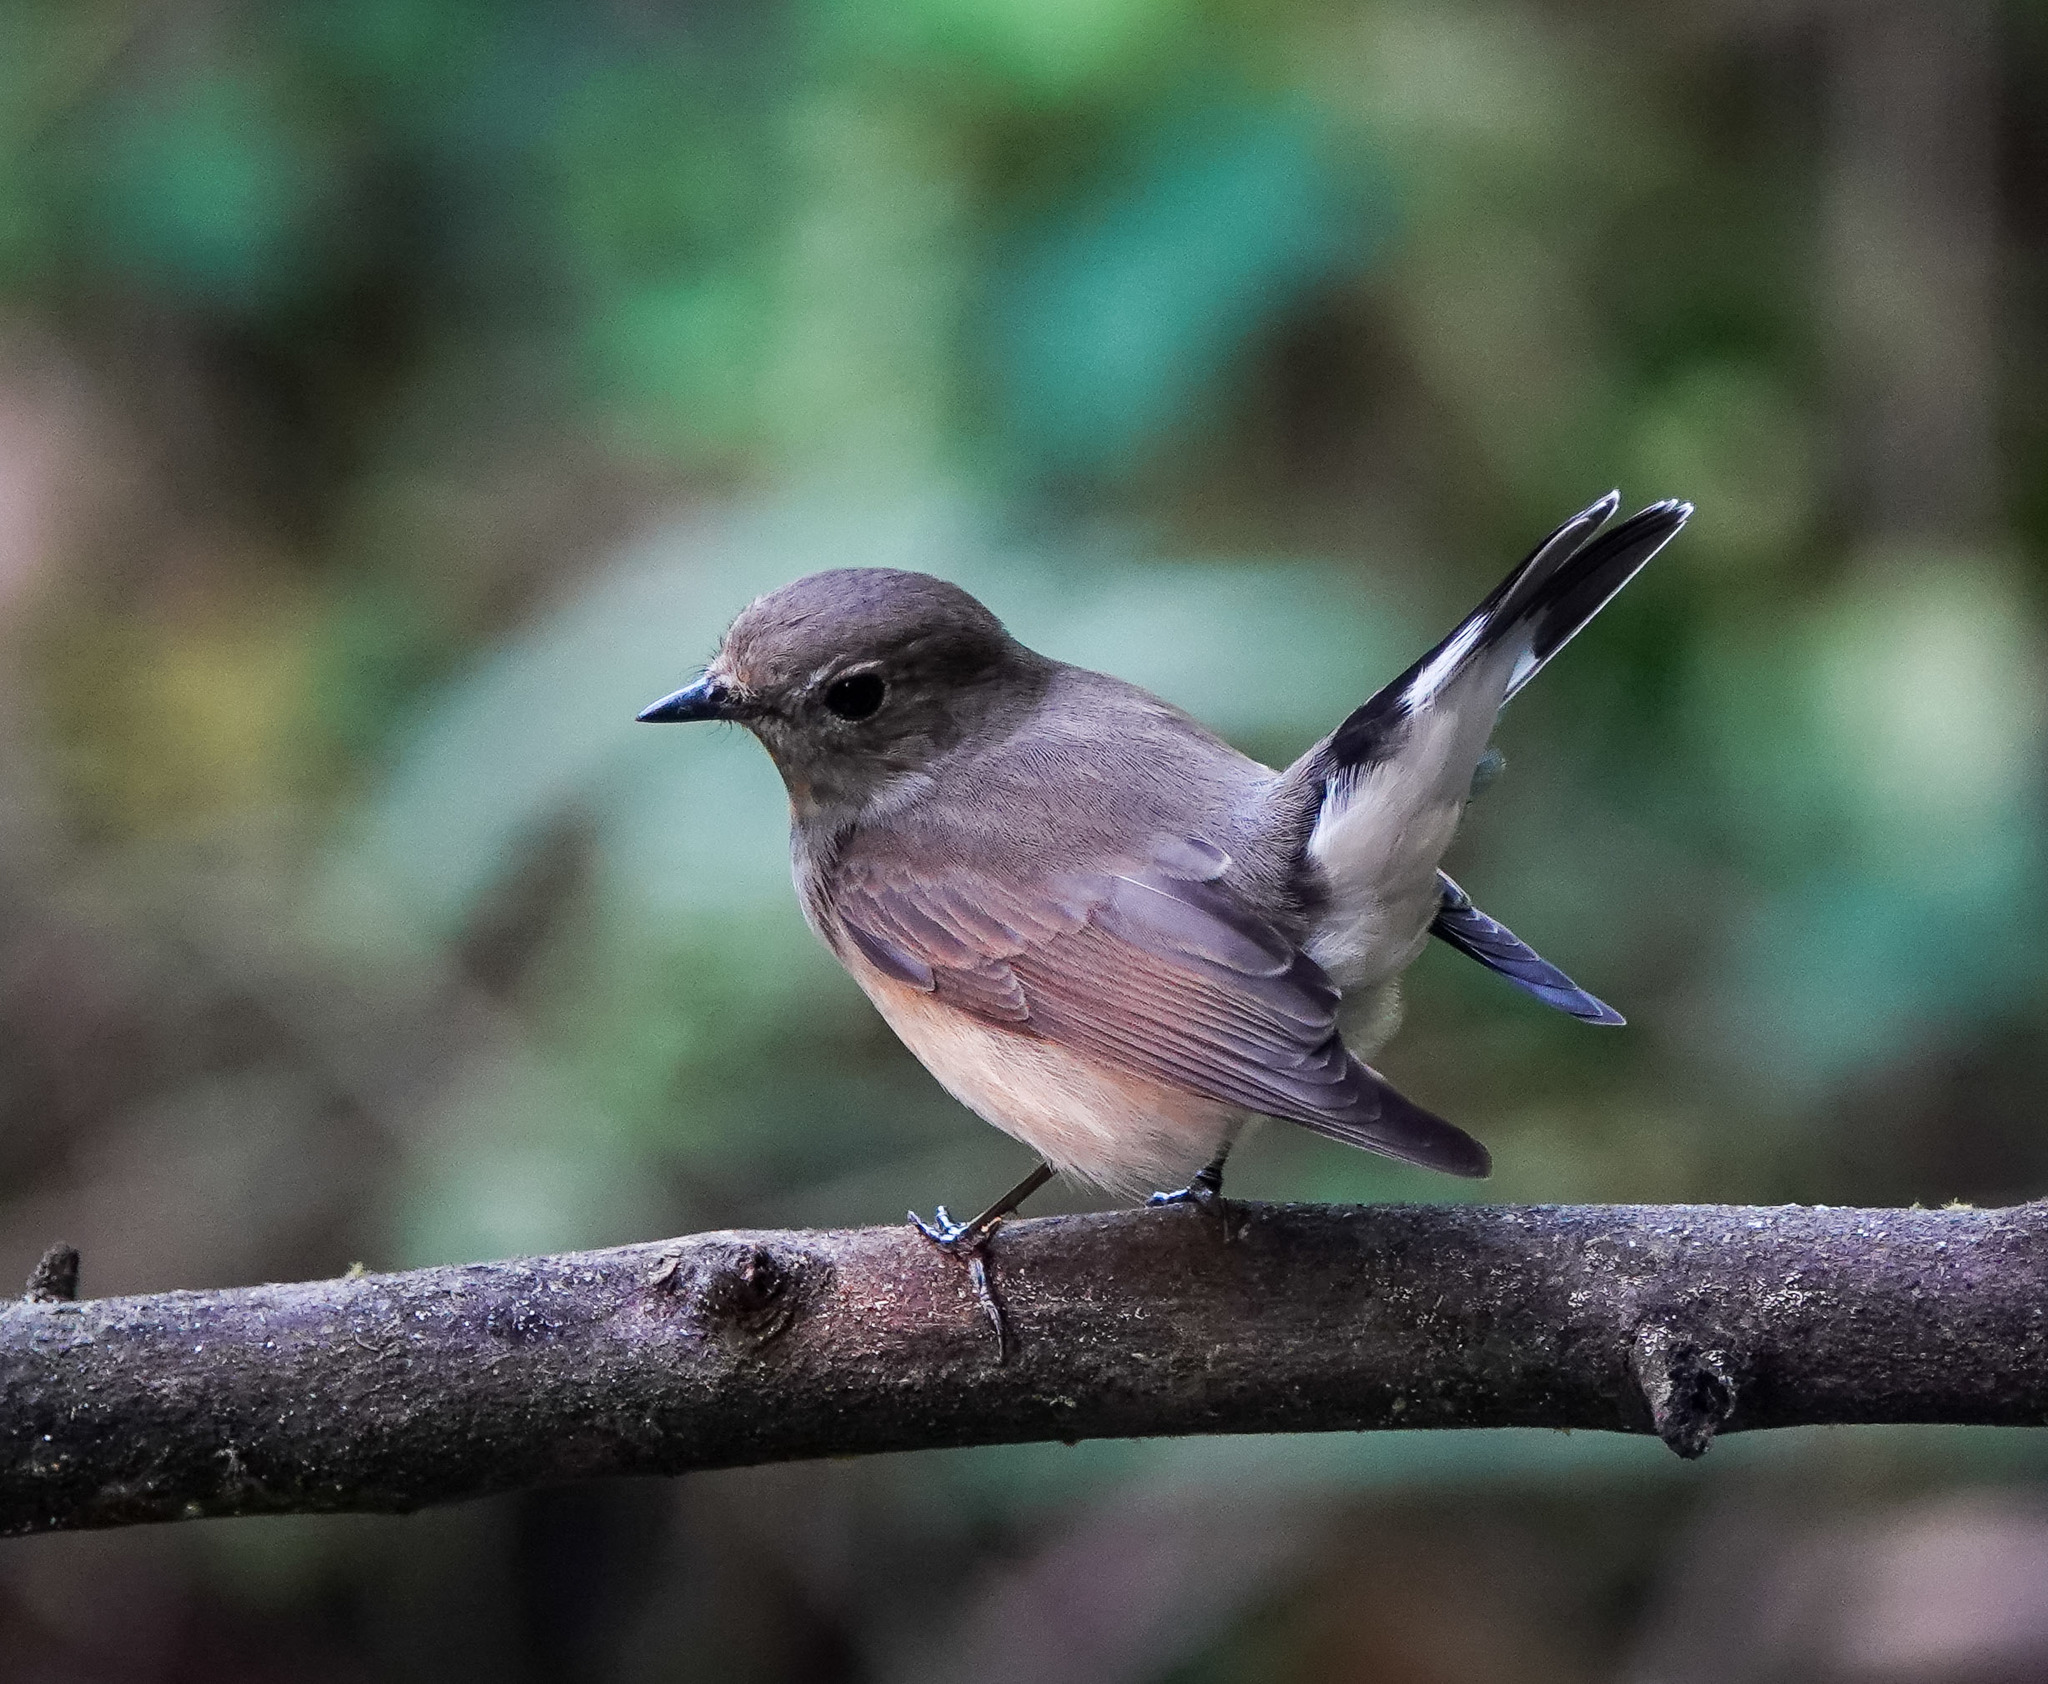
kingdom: Animalia
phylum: Chordata
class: Aves
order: Passeriformes
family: Muscicapidae
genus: Ficedula
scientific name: Ficedula albicilla
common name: Taiga flycatcher
